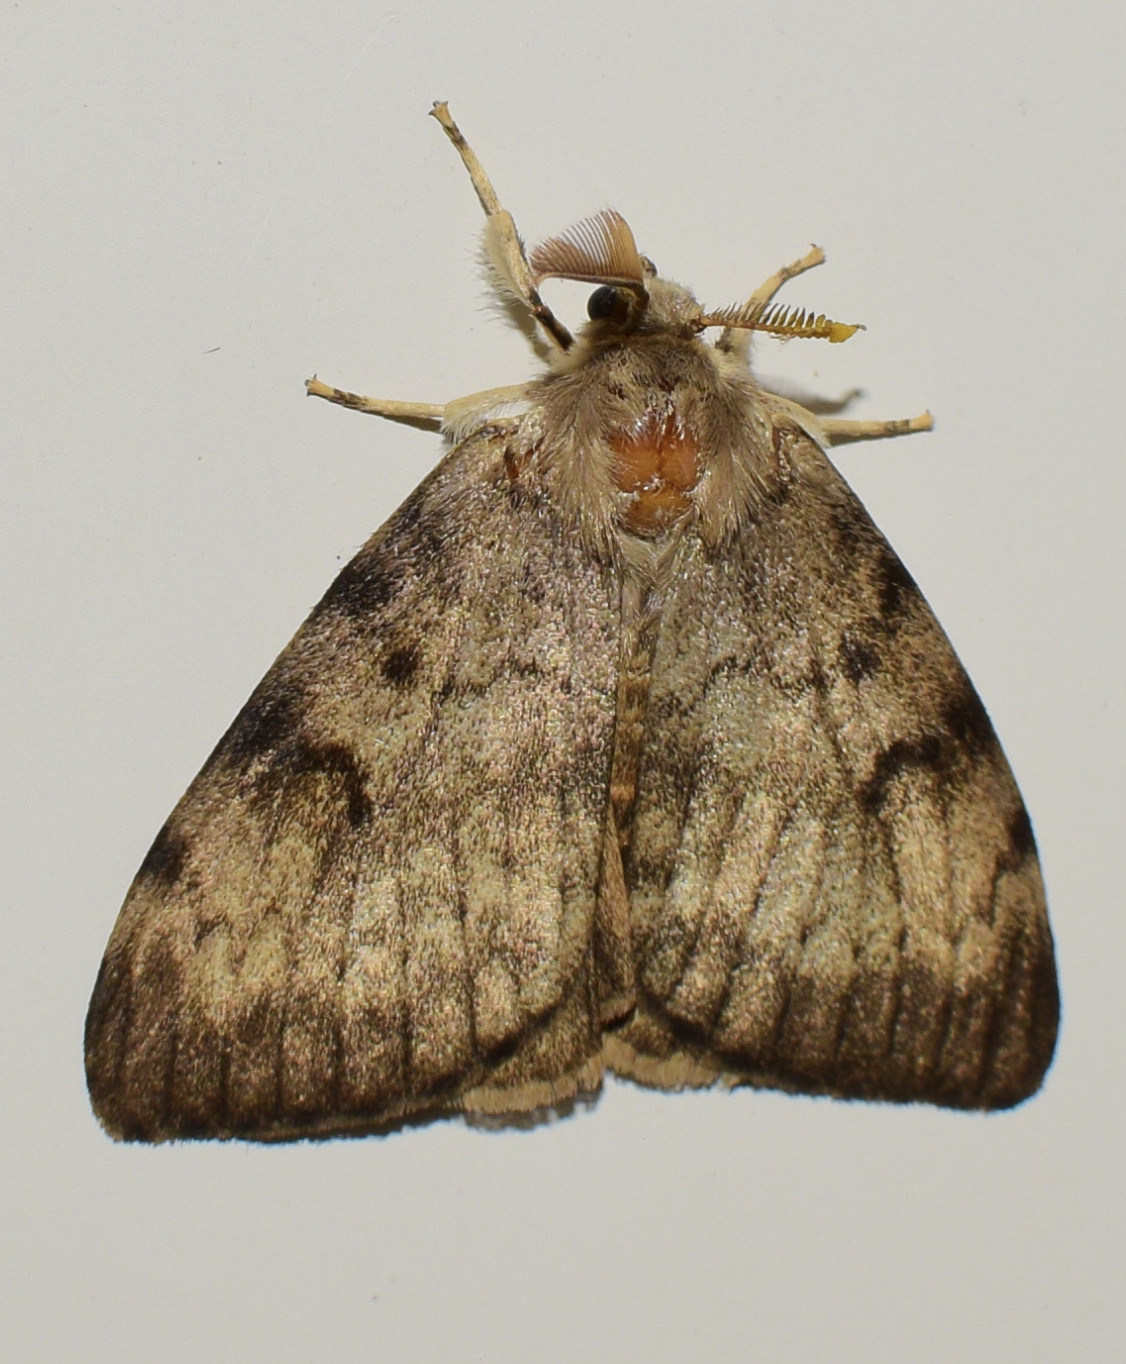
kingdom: Animalia
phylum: Arthropoda
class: Insecta
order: Lepidoptera
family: Erebidae
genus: Lymantria
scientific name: Lymantria dispar
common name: Gypsy moth
